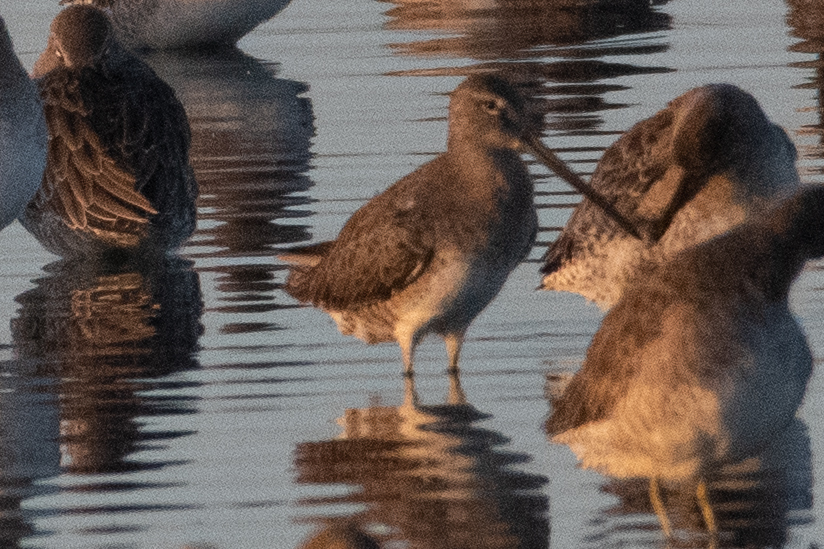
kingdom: Animalia
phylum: Chordata
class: Aves
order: Charadriiformes
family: Scolopacidae
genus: Limnodromus
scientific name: Limnodromus scolopaceus
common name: Long-billed dowitcher
